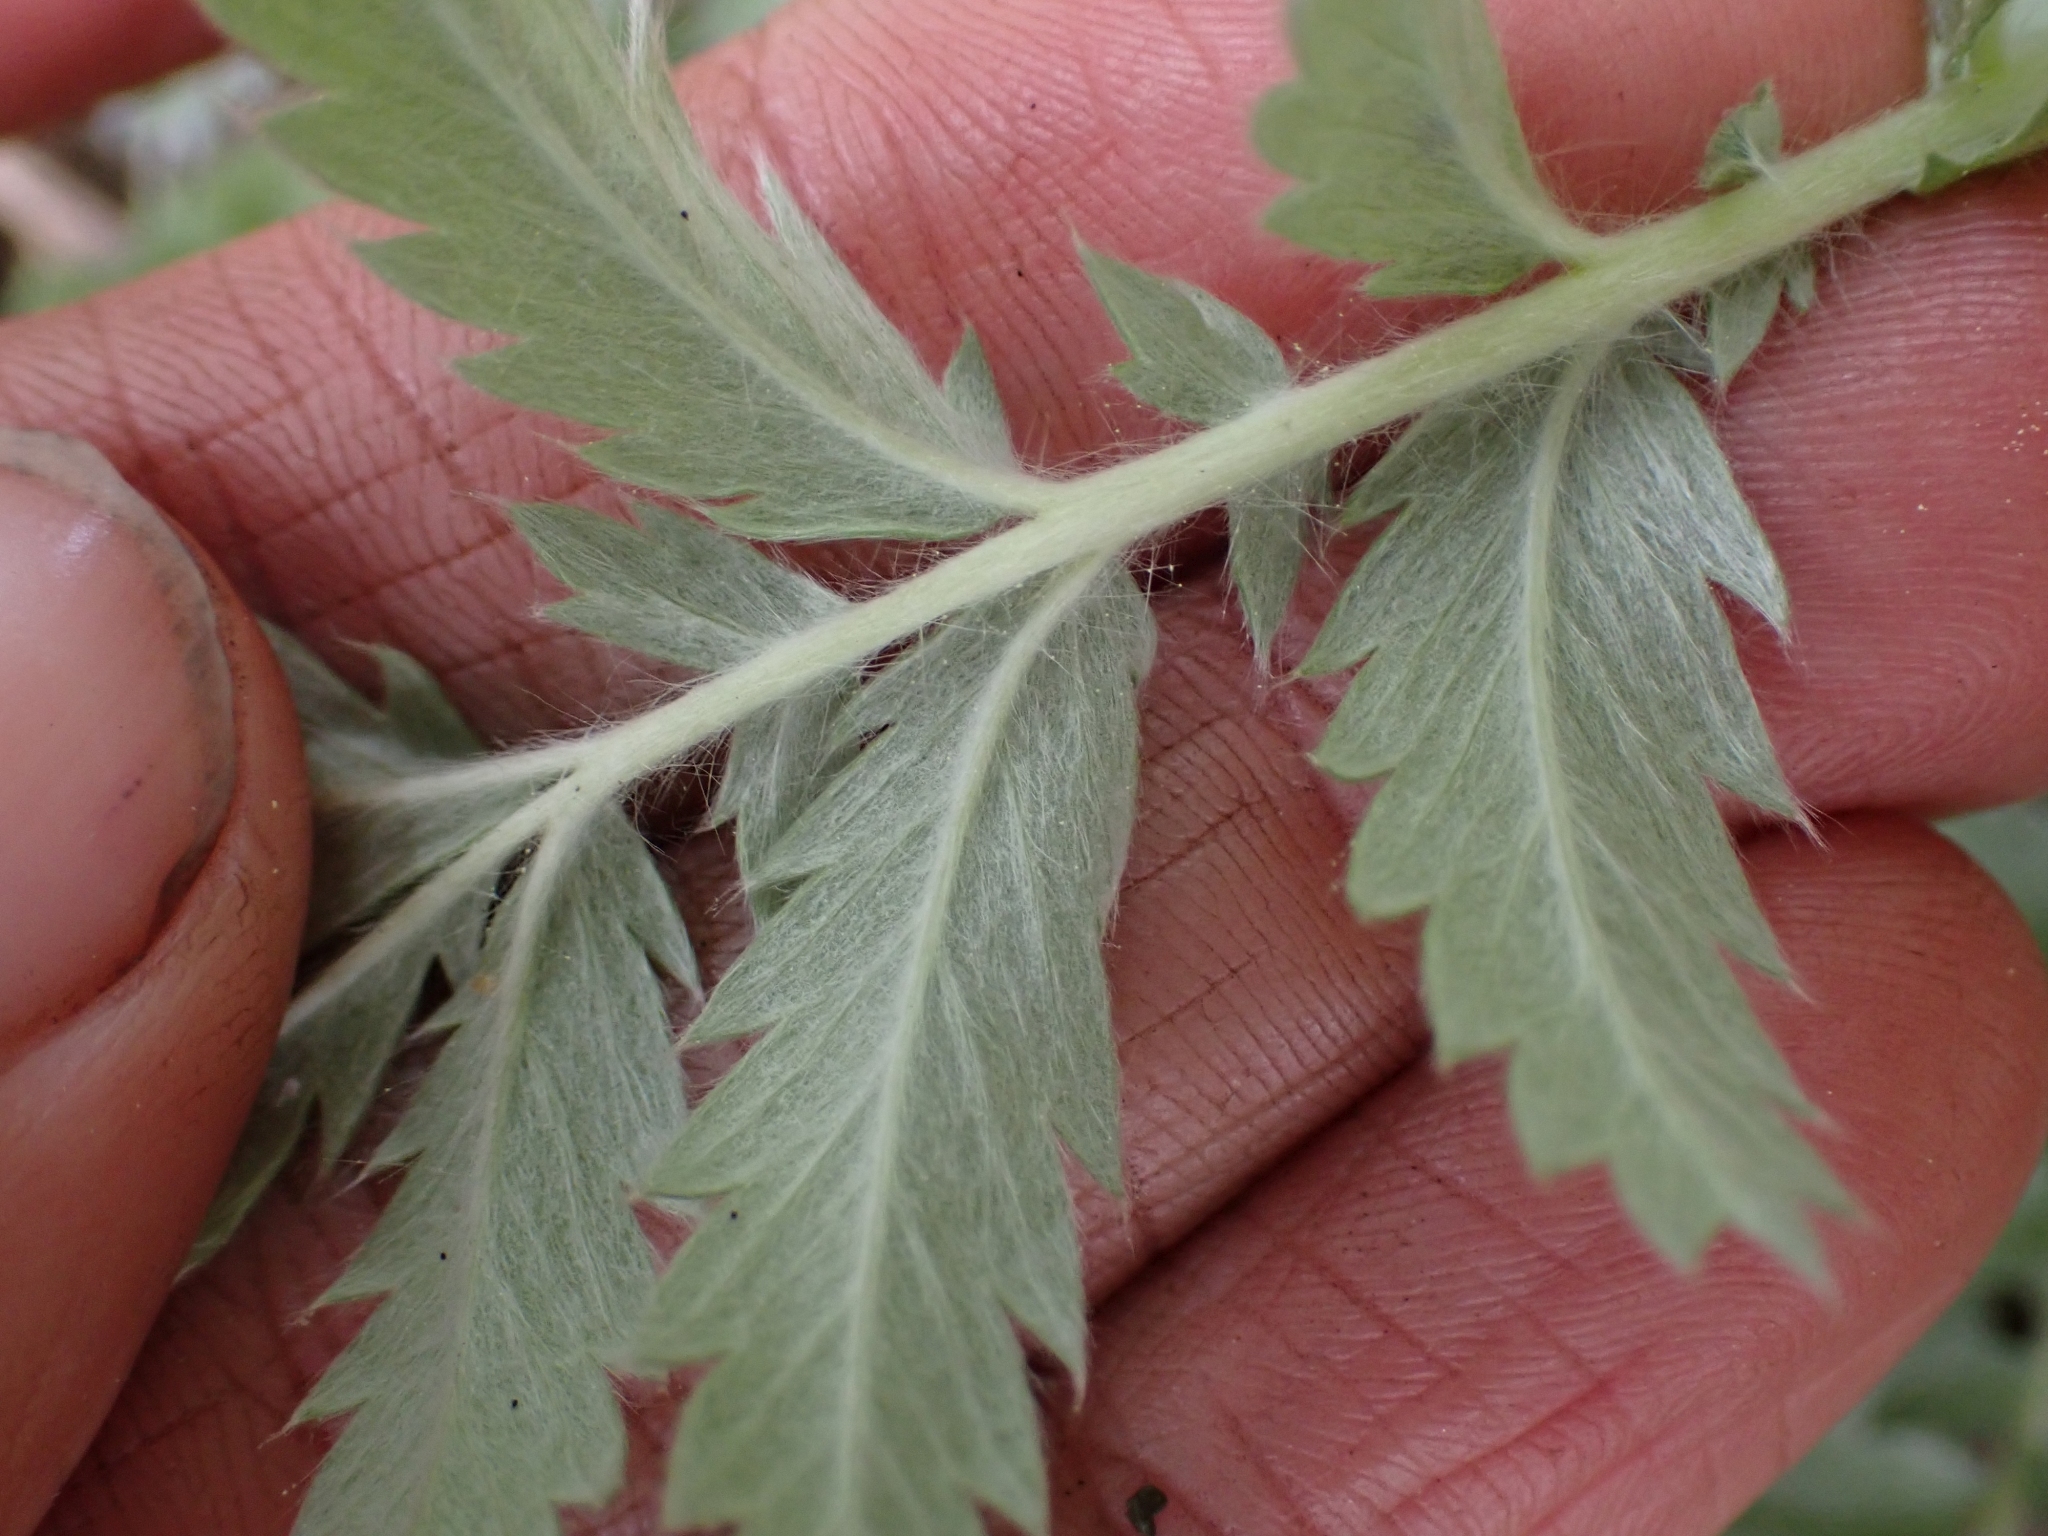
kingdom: Plantae
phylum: Tracheophyta
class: Magnoliopsida
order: Rosales
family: Rosaceae
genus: Argentina
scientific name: Argentina anserina
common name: Common silverweed
